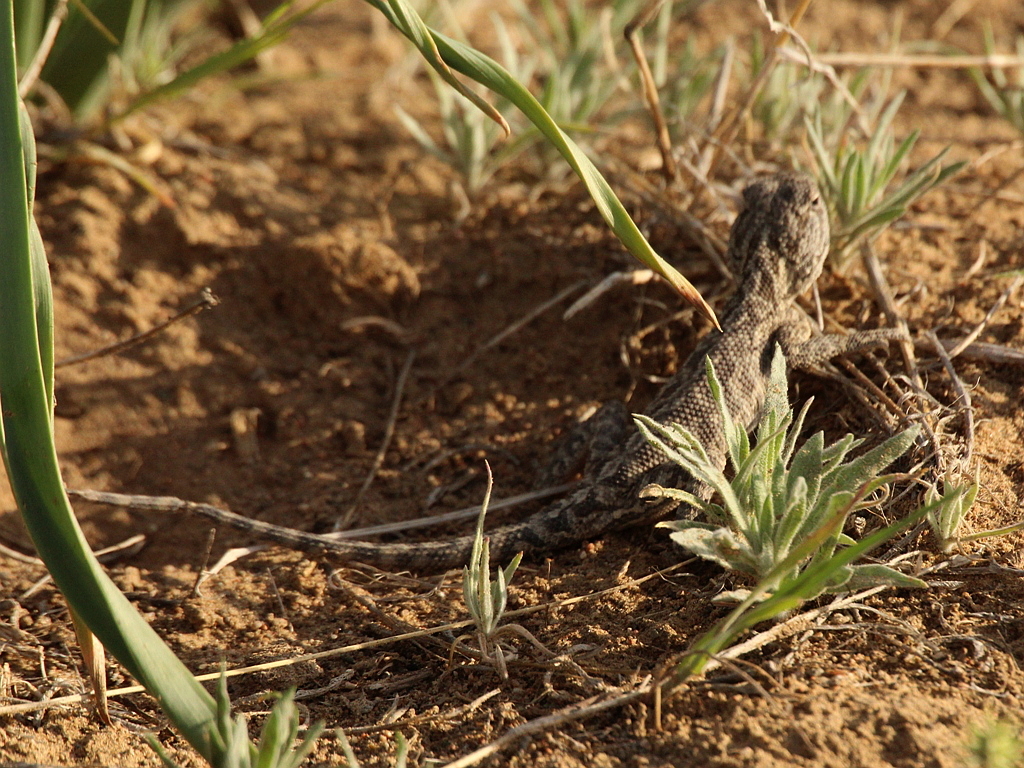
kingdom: Animalia
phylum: Chordata
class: Squamata
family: Agamidae
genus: Trapelus
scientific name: Trapelus sanguinolentus
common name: Steppe agama
